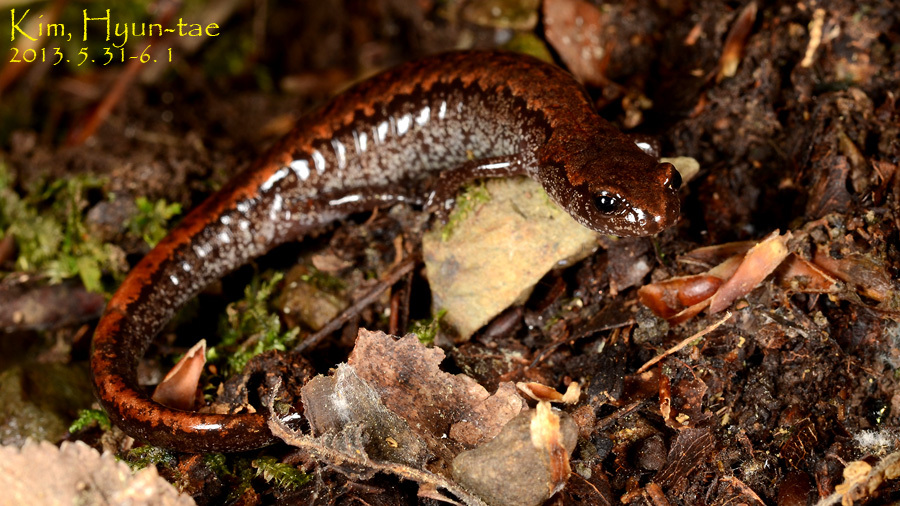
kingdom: Animalia
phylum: Chordata
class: Amphibia
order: Caudata
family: Plethodontidae
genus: Karsenia
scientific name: Karsenia koreana
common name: Korean crevice salamander
